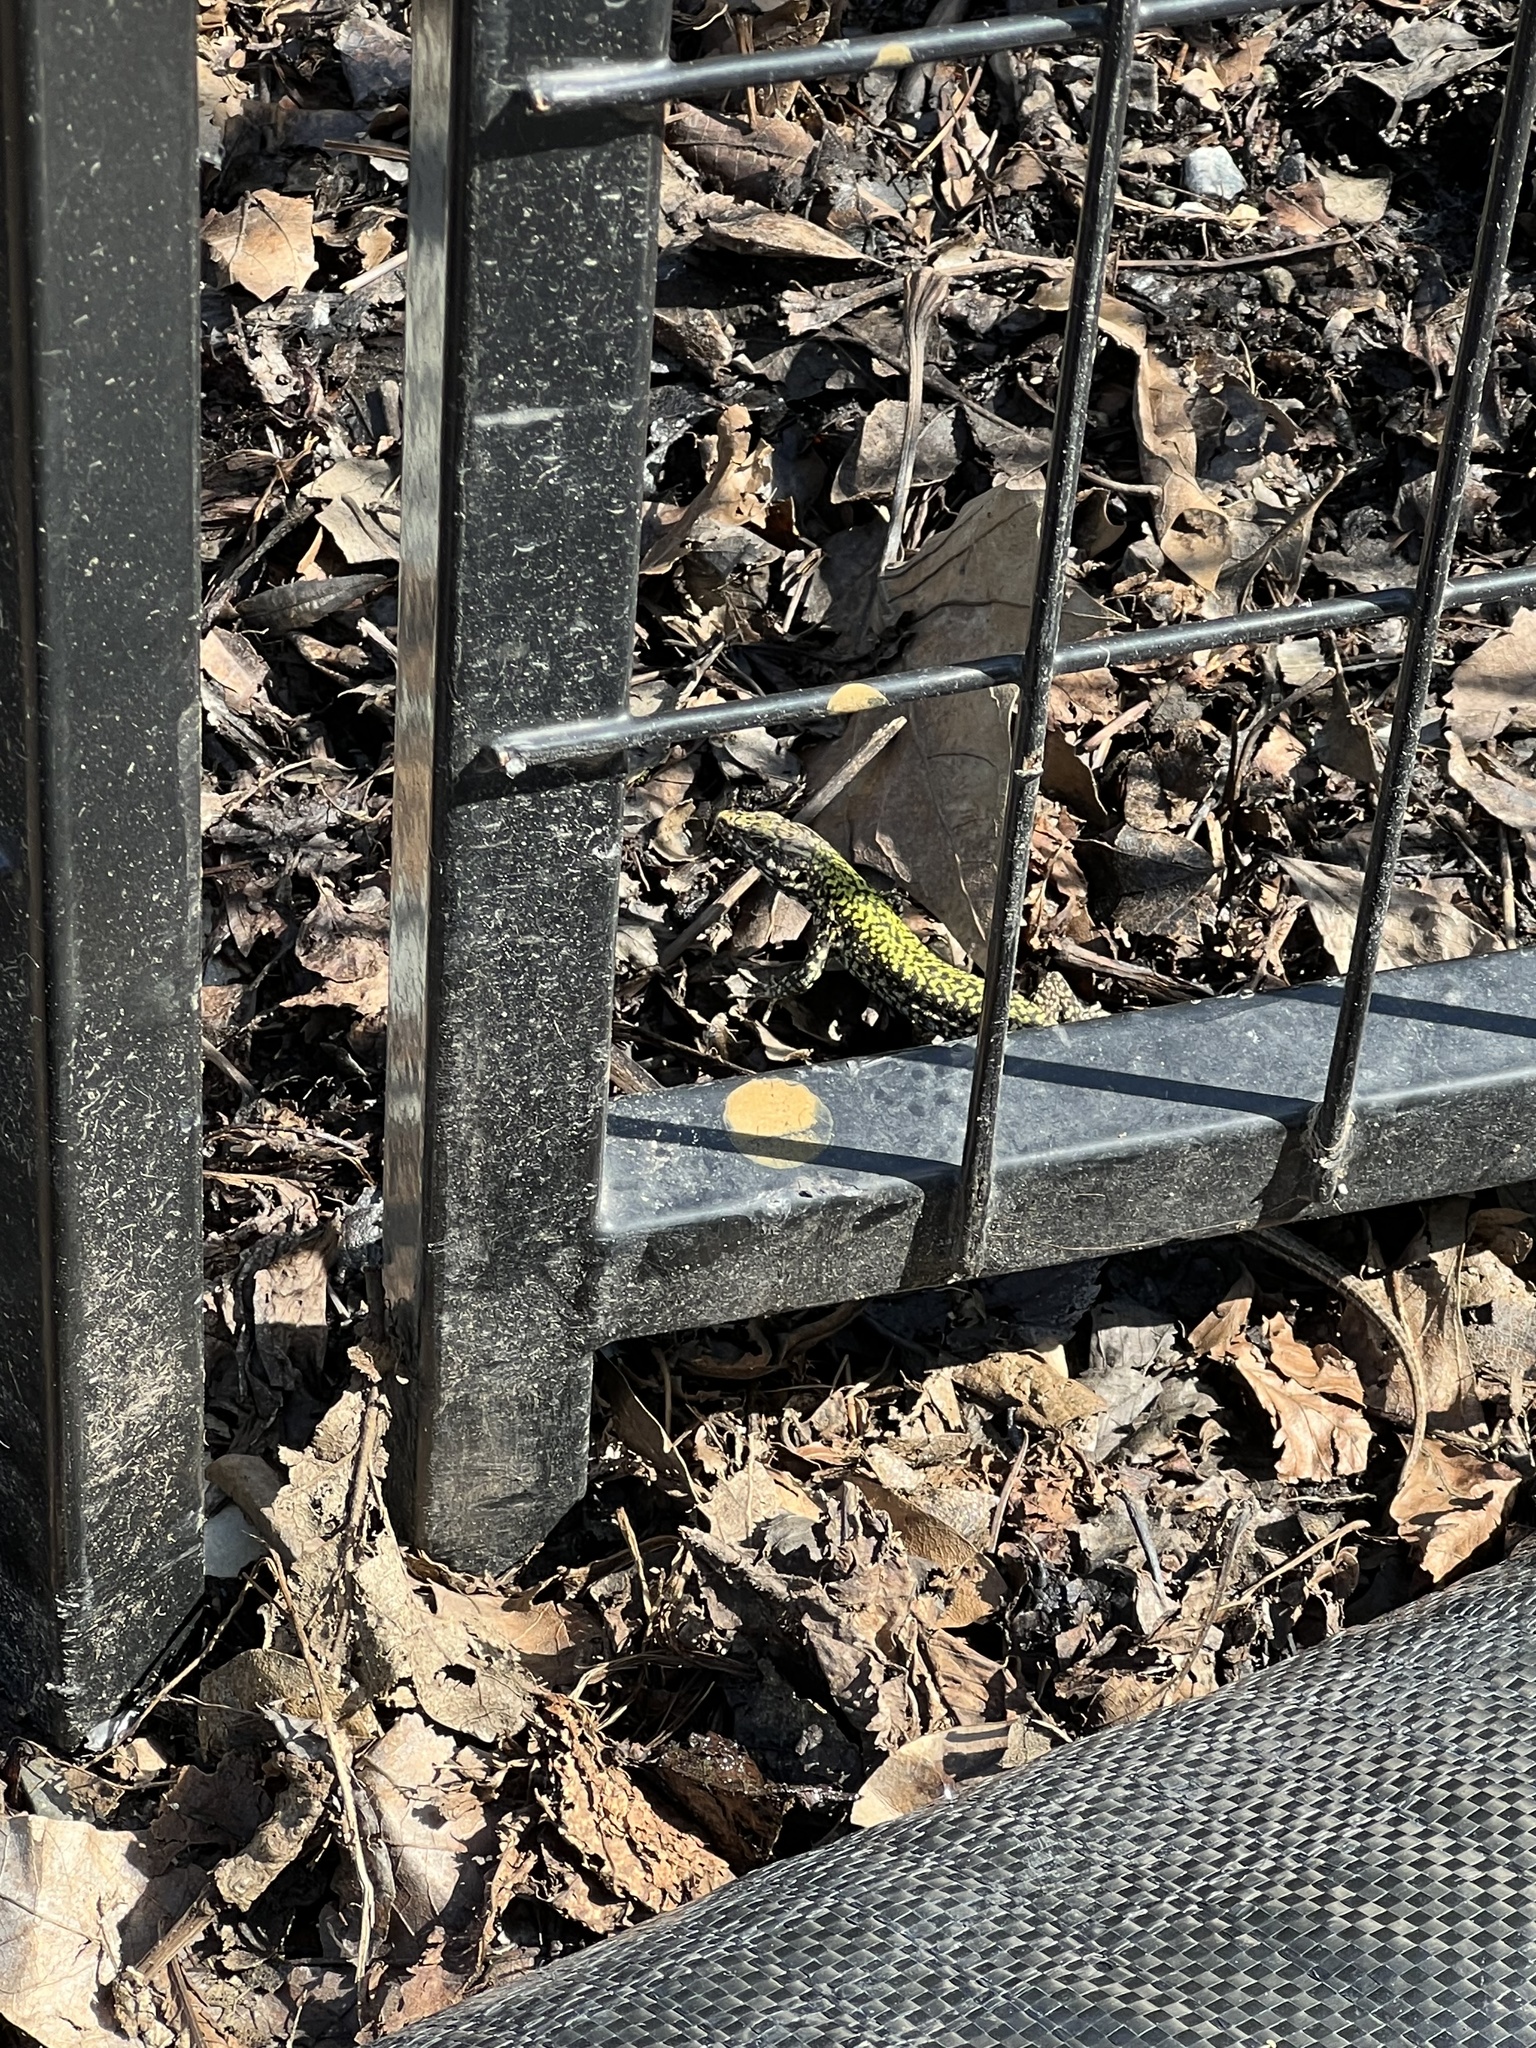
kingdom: Animalia
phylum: Chordata
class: Squamata
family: Lacertidae
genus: Podarcis
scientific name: Podarcis muralis
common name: Common wall lizard
